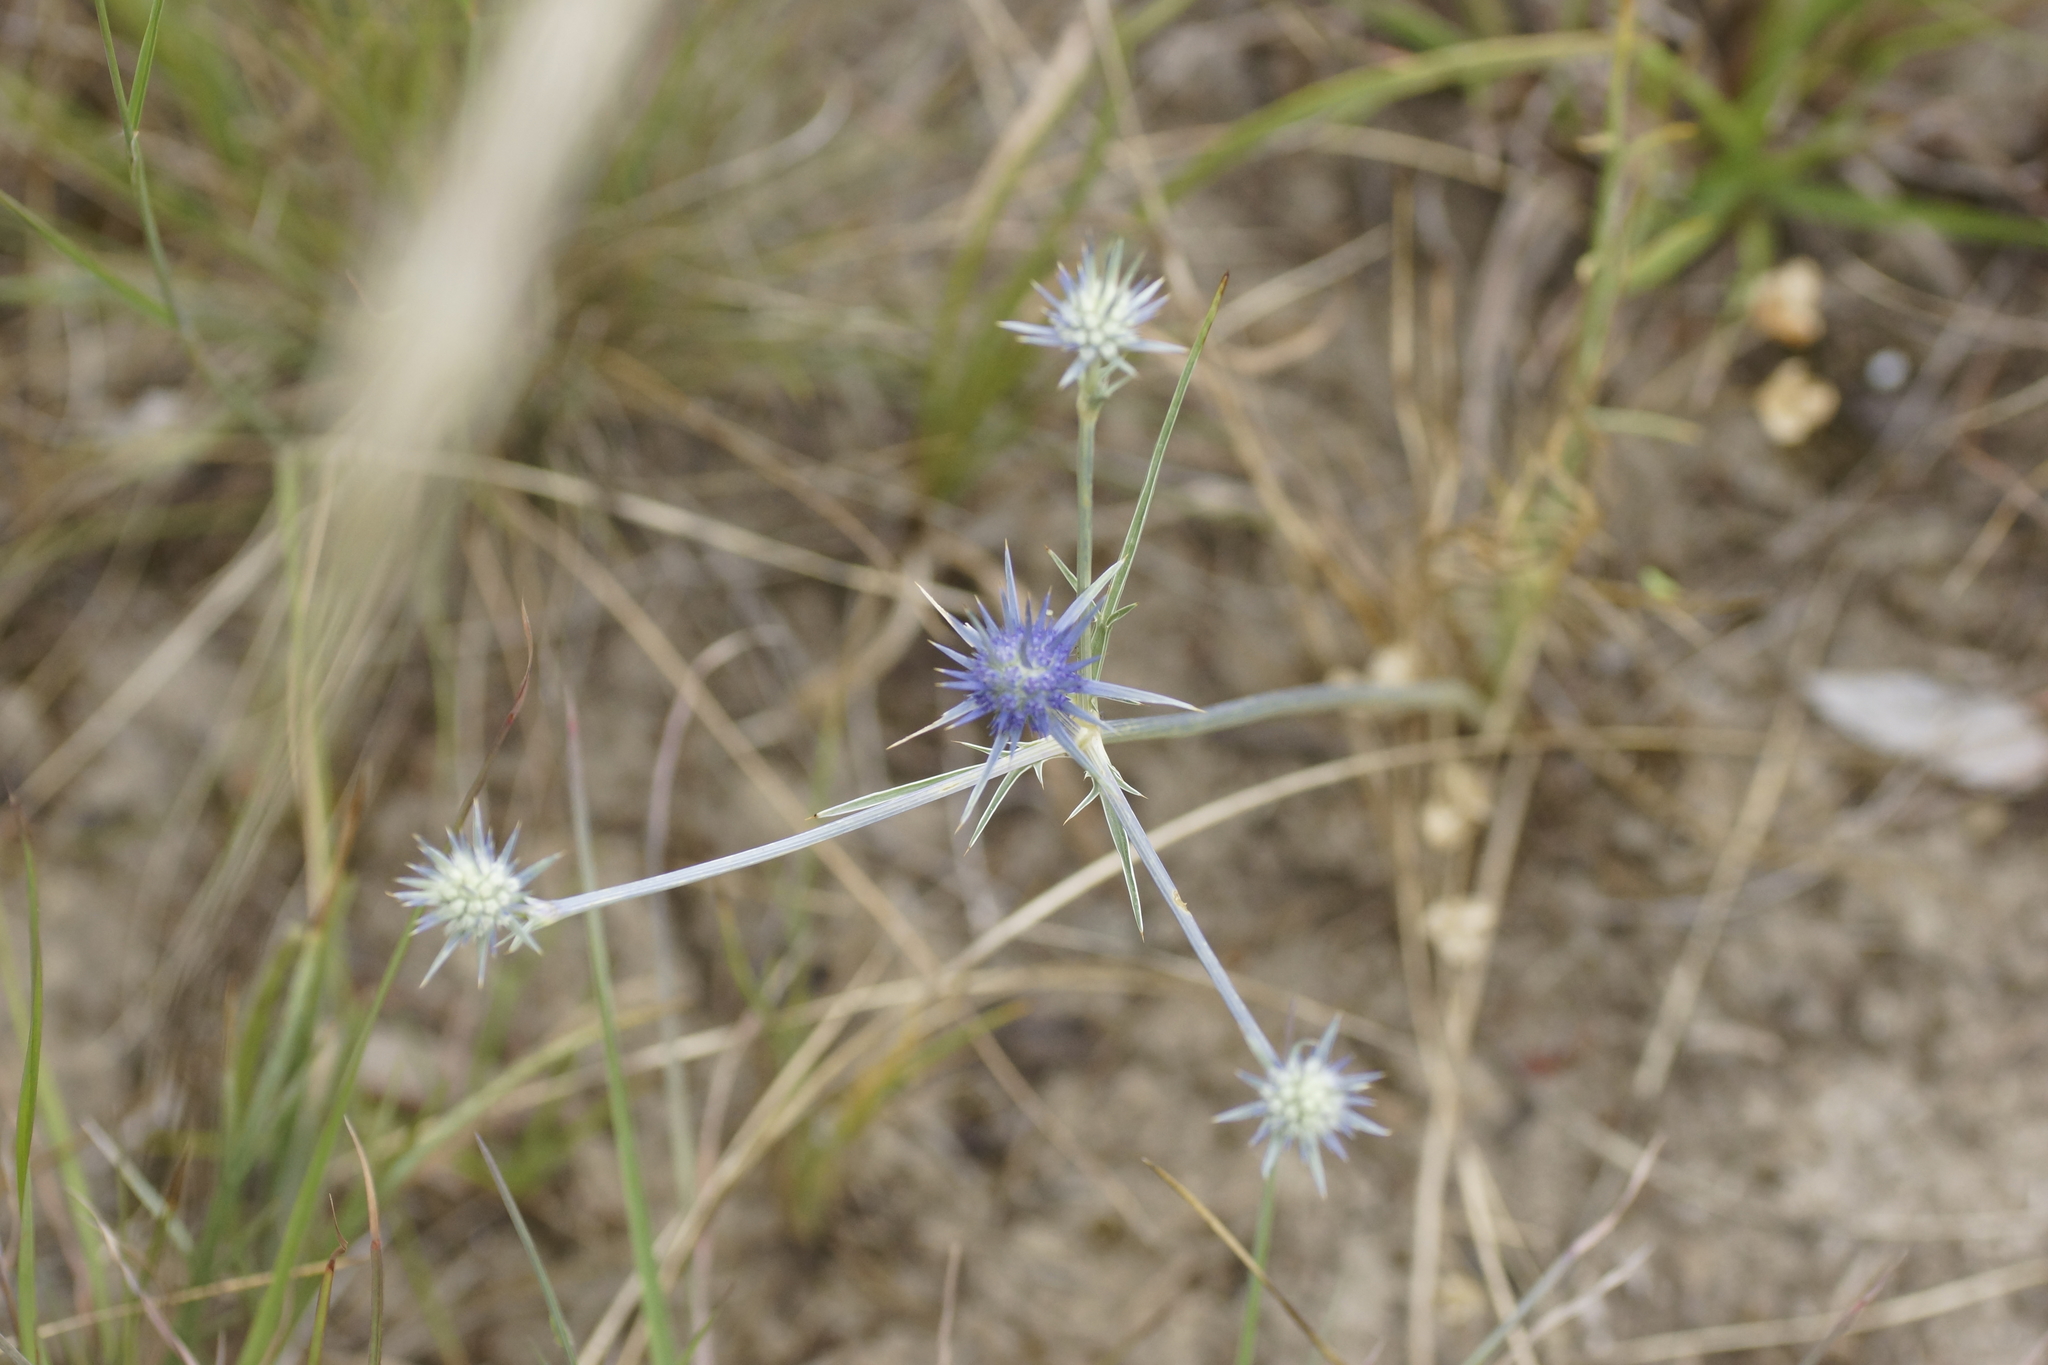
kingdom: Plantae
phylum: Tracheophyta
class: Magnoliopsida
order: Apiales
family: Apiaceae
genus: Eryngium
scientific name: Eryngium ovinum
